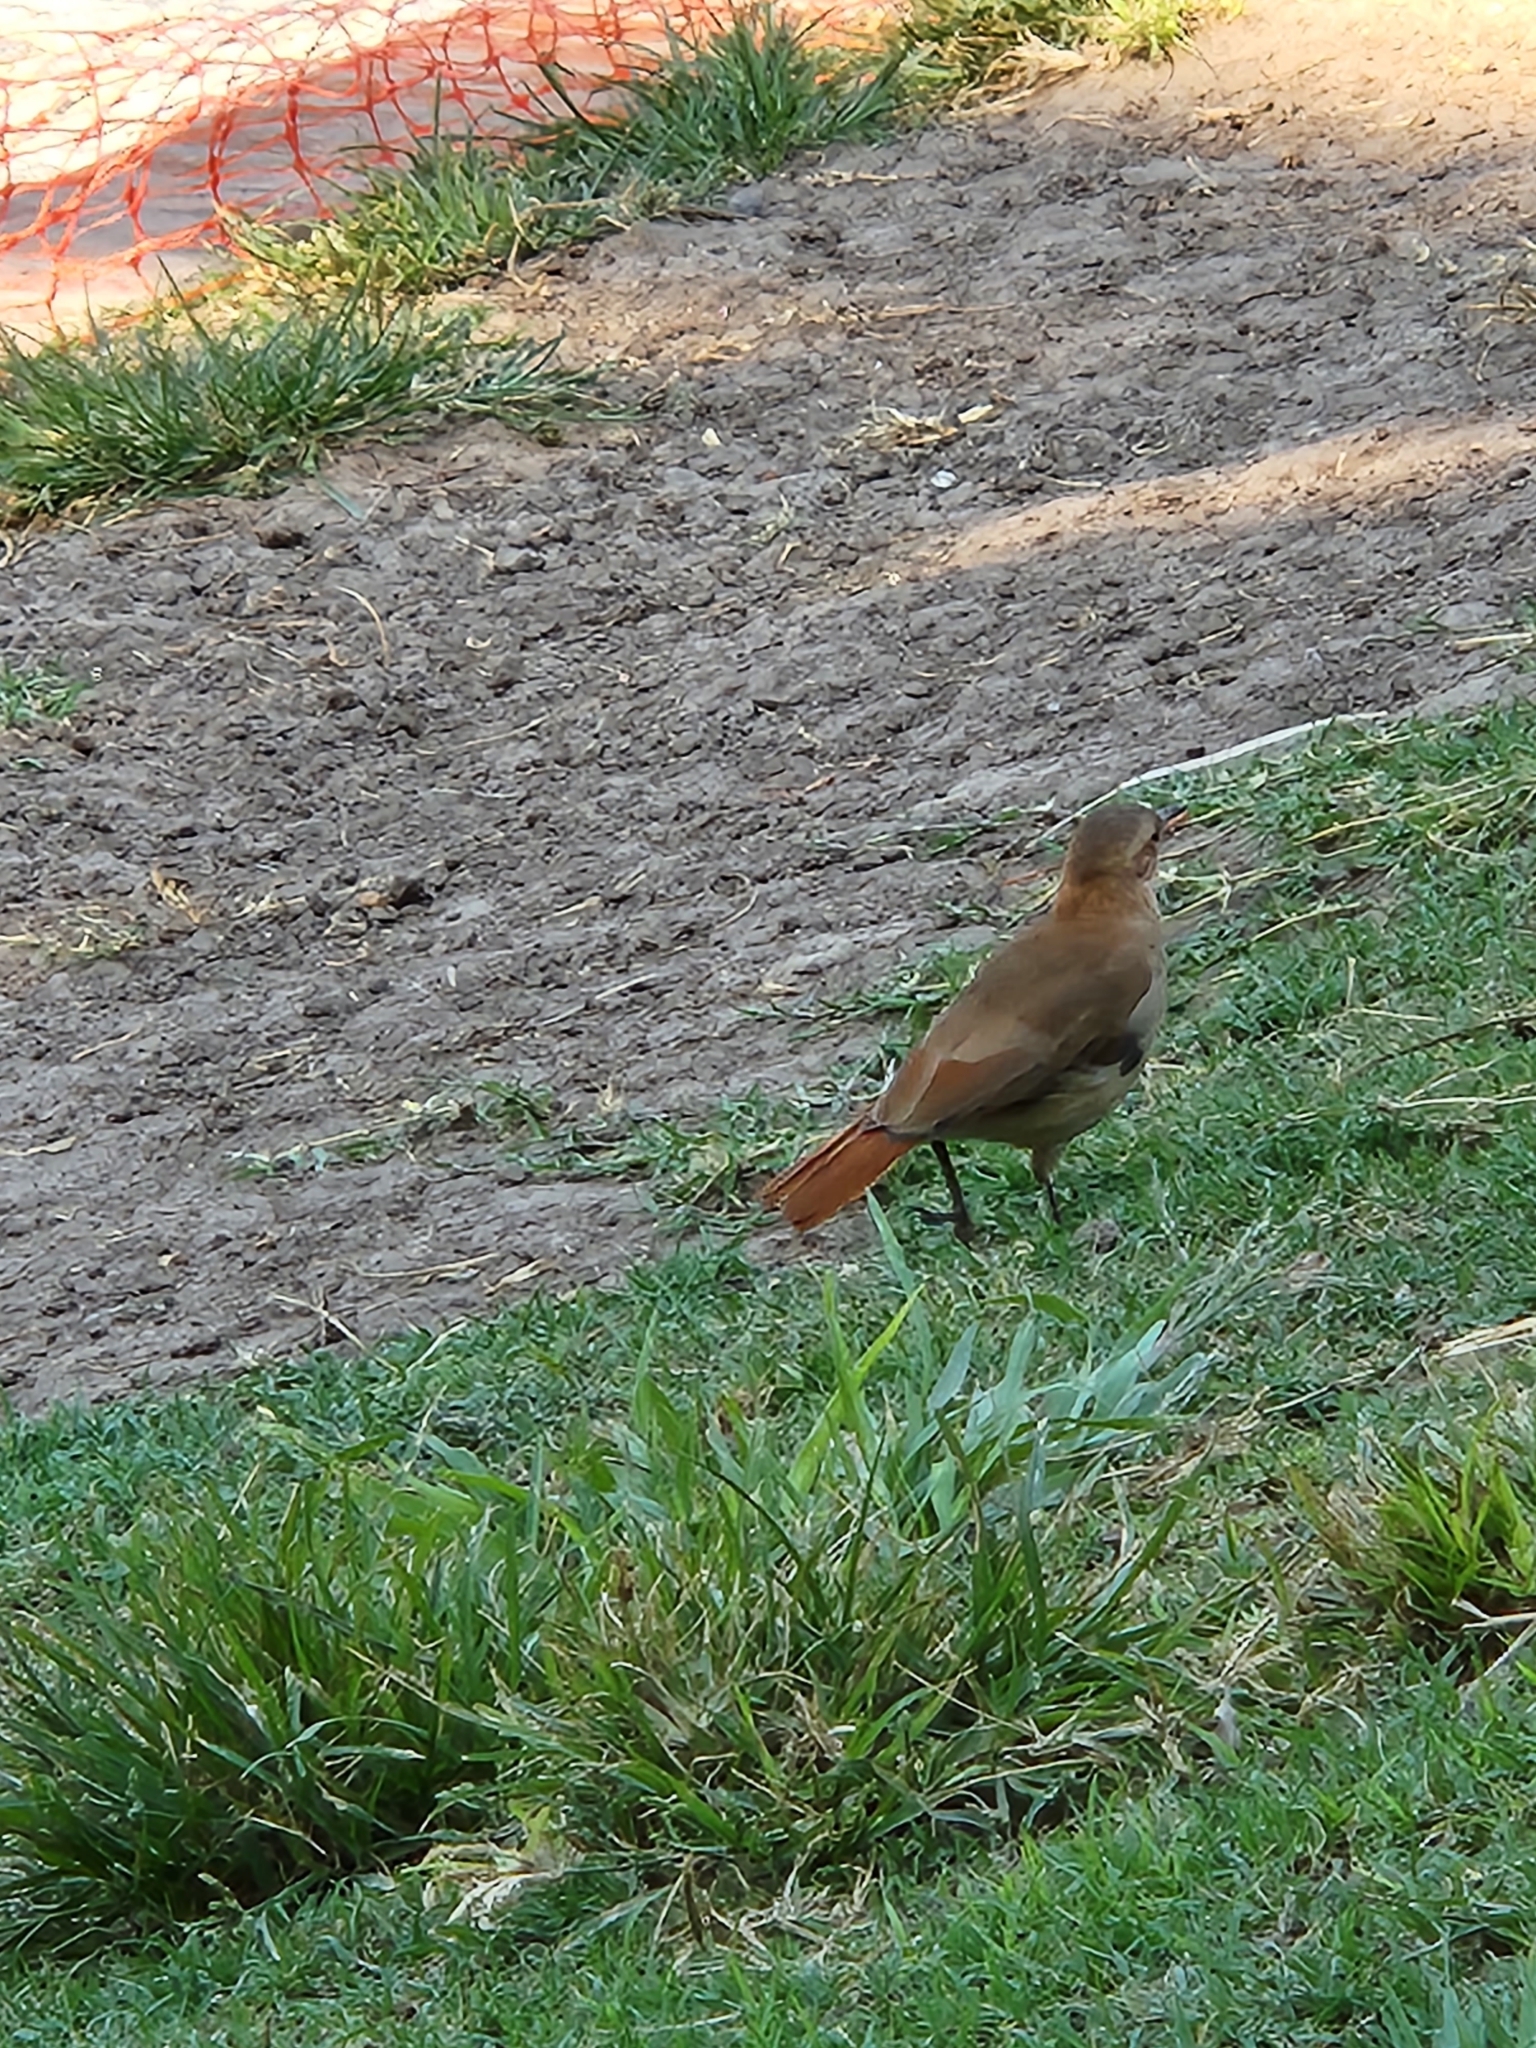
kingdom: Animalia
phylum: Chordata
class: Aves
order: Passeriformes
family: Furnariidae
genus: Furnarius
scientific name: Furnarius rufus
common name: Rufous hornero
